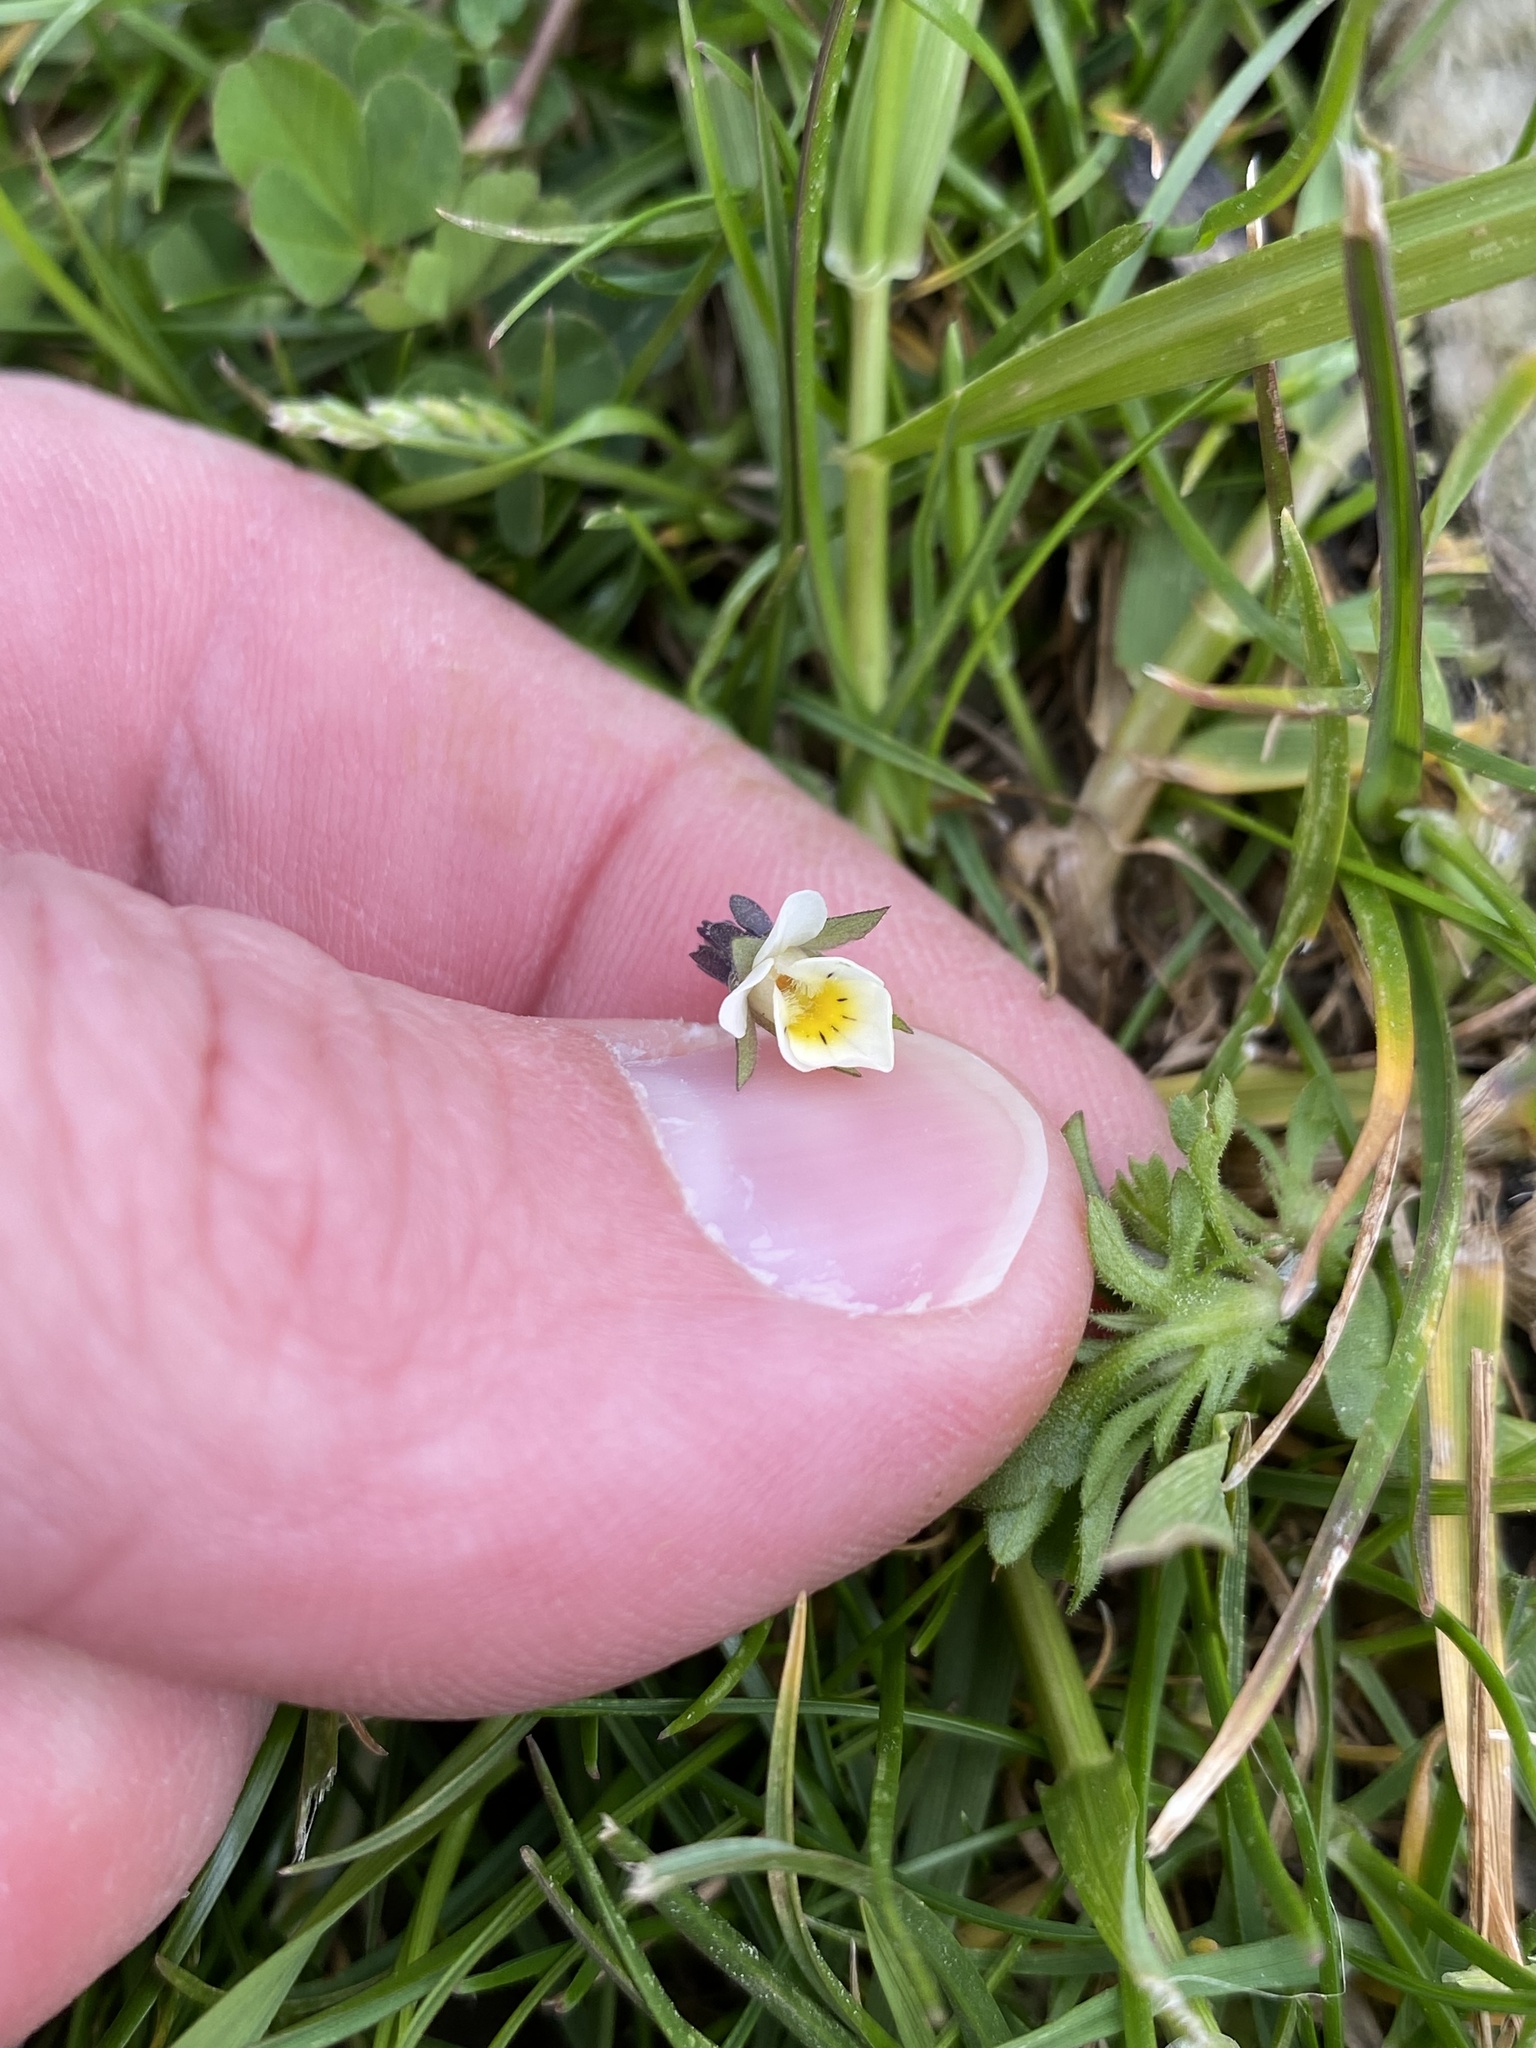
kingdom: Plantae
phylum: Tracheophyta
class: Magnoliopsida
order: Malpighiales
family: Violaceae
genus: Viola
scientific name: Viola arvensis
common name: Field pansy
